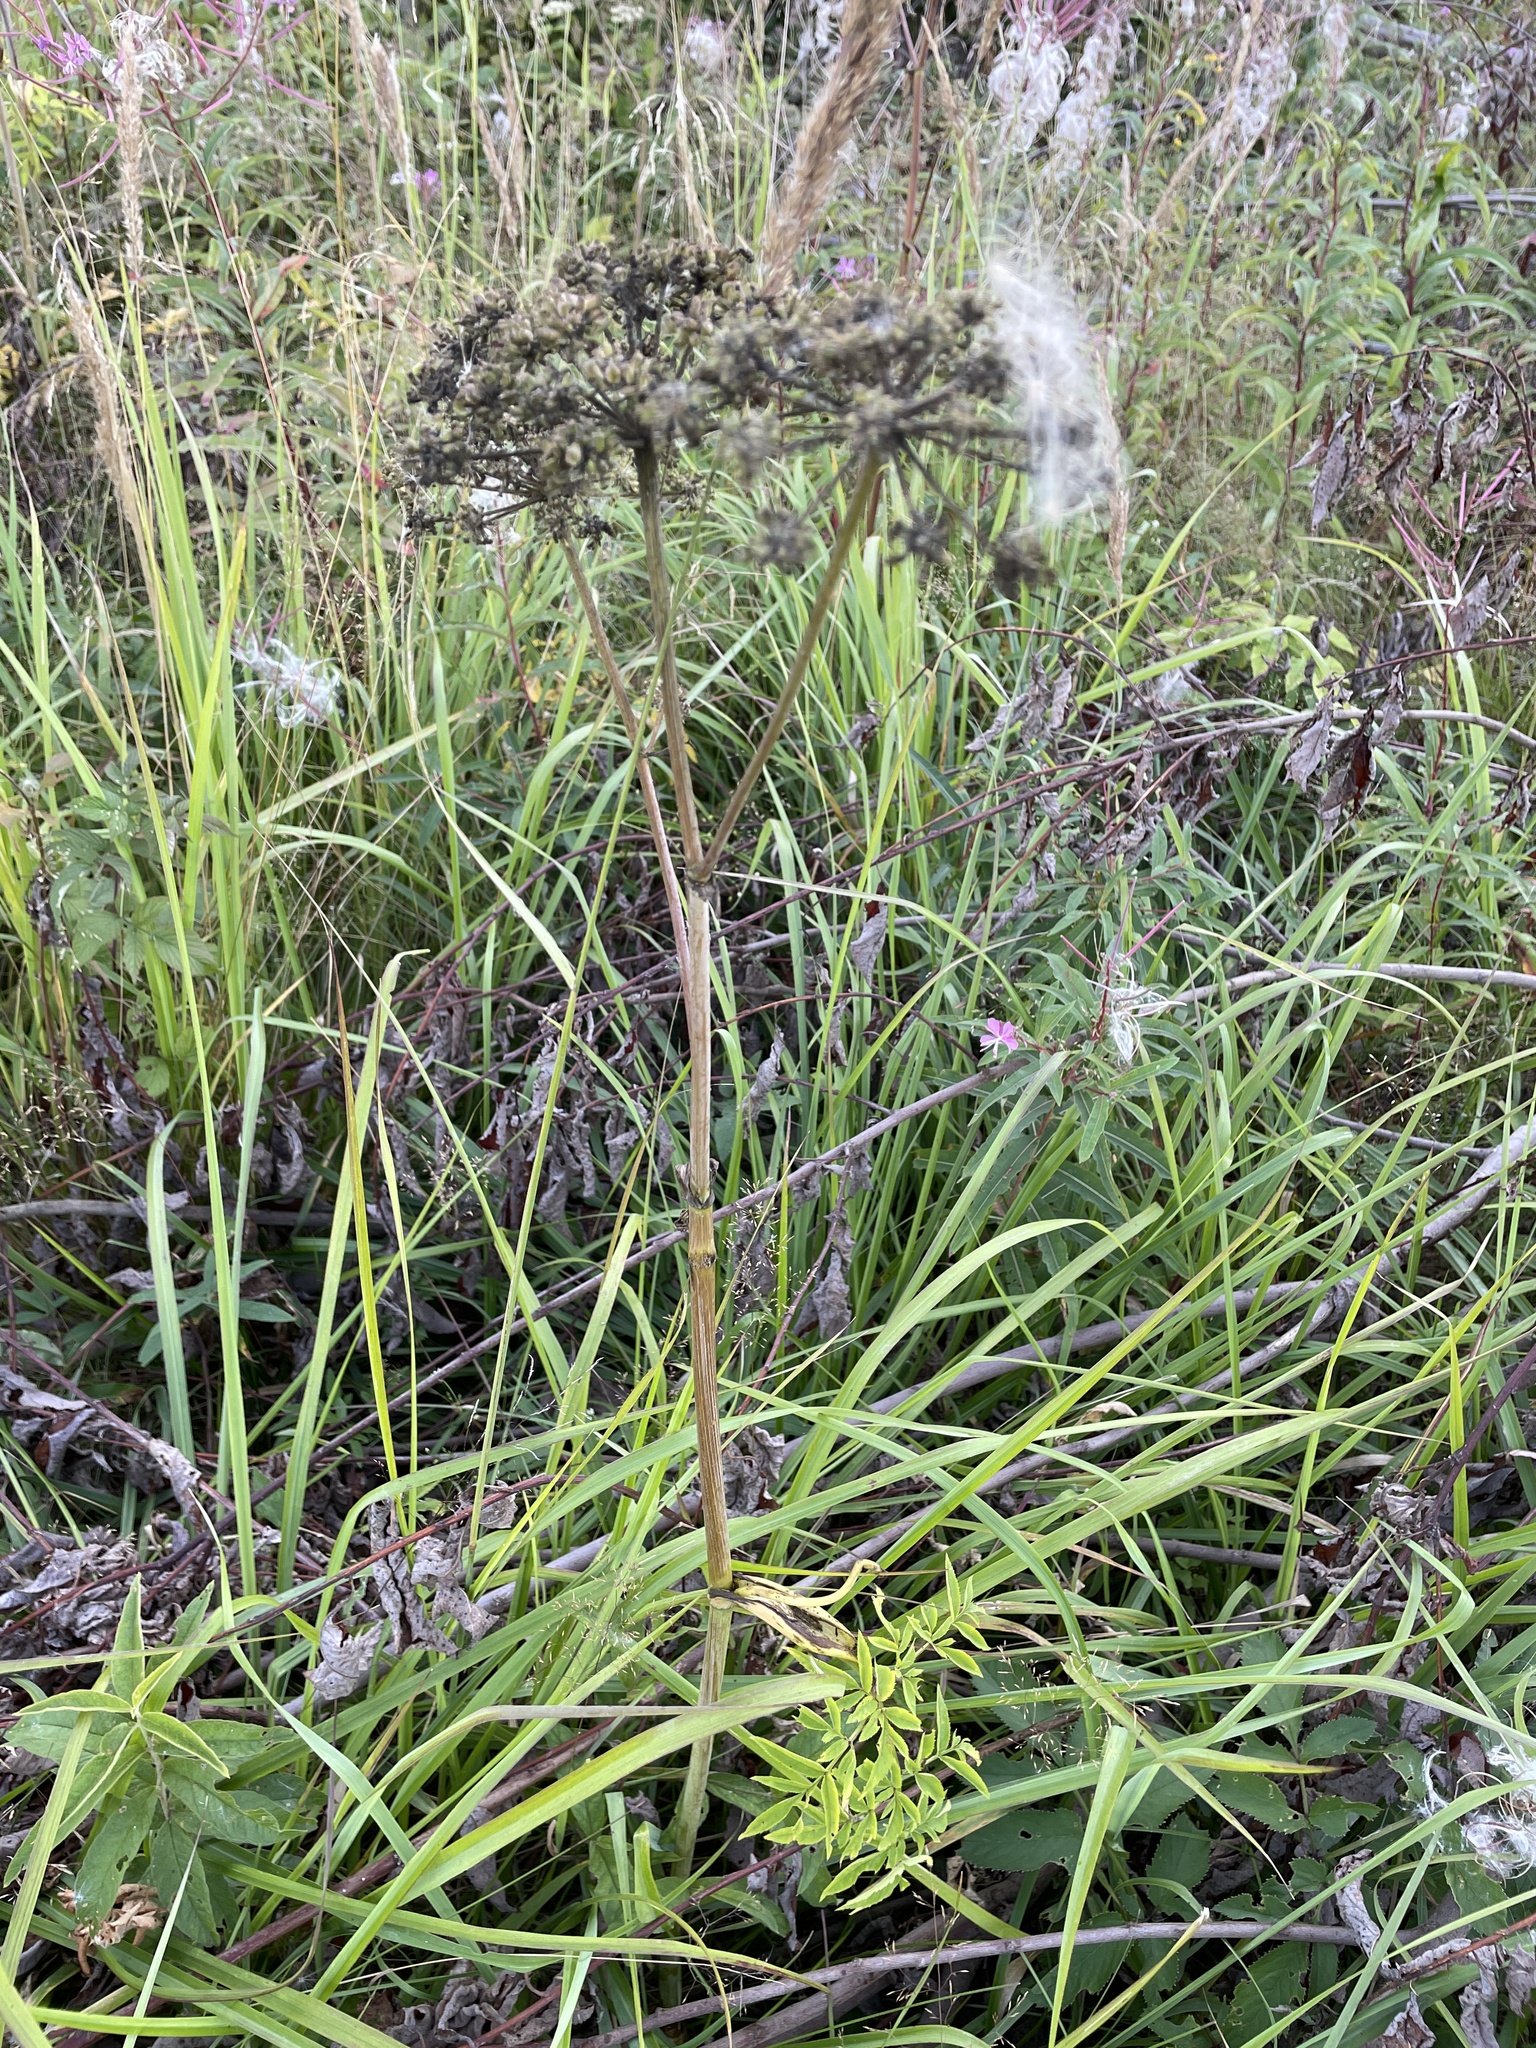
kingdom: Plantae
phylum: Tracheophyta
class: Magnoliopsida
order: Apiales
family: Apiaceae
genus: Angelica
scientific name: Angelica sylvestris
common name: Wild angelica
